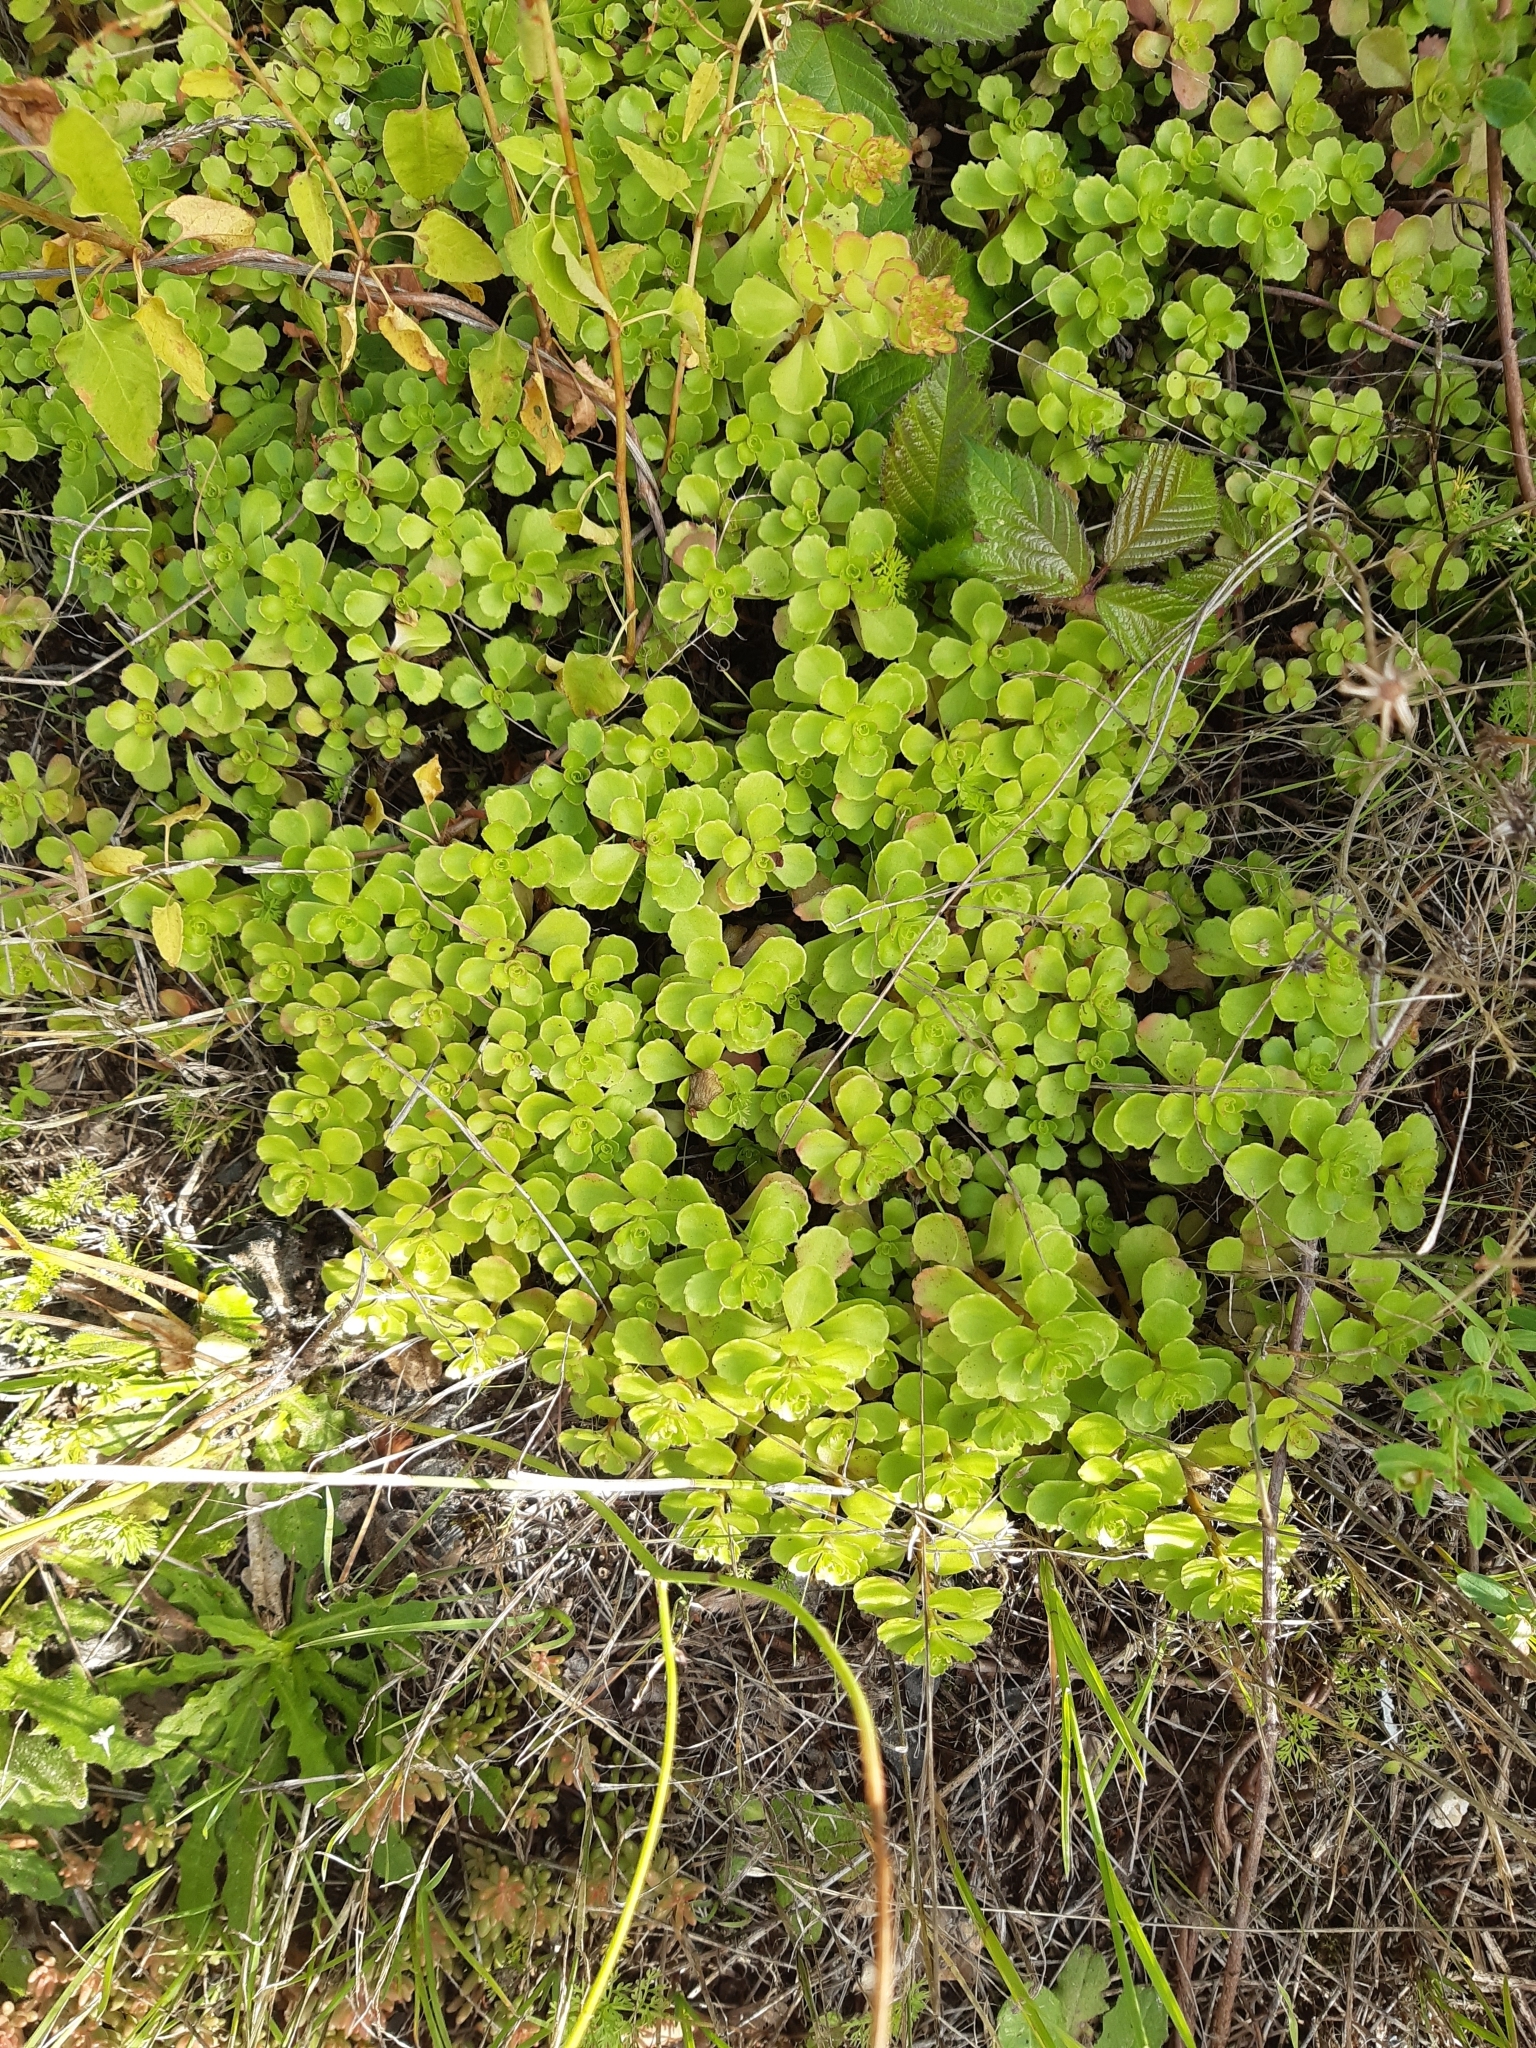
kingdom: Plantae
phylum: Tracheophyta
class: Magnoliopsida
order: Saxifragales
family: Crassulaceae
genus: Phedimus
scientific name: Phedimus spurius
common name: Caucasian stonecrop
